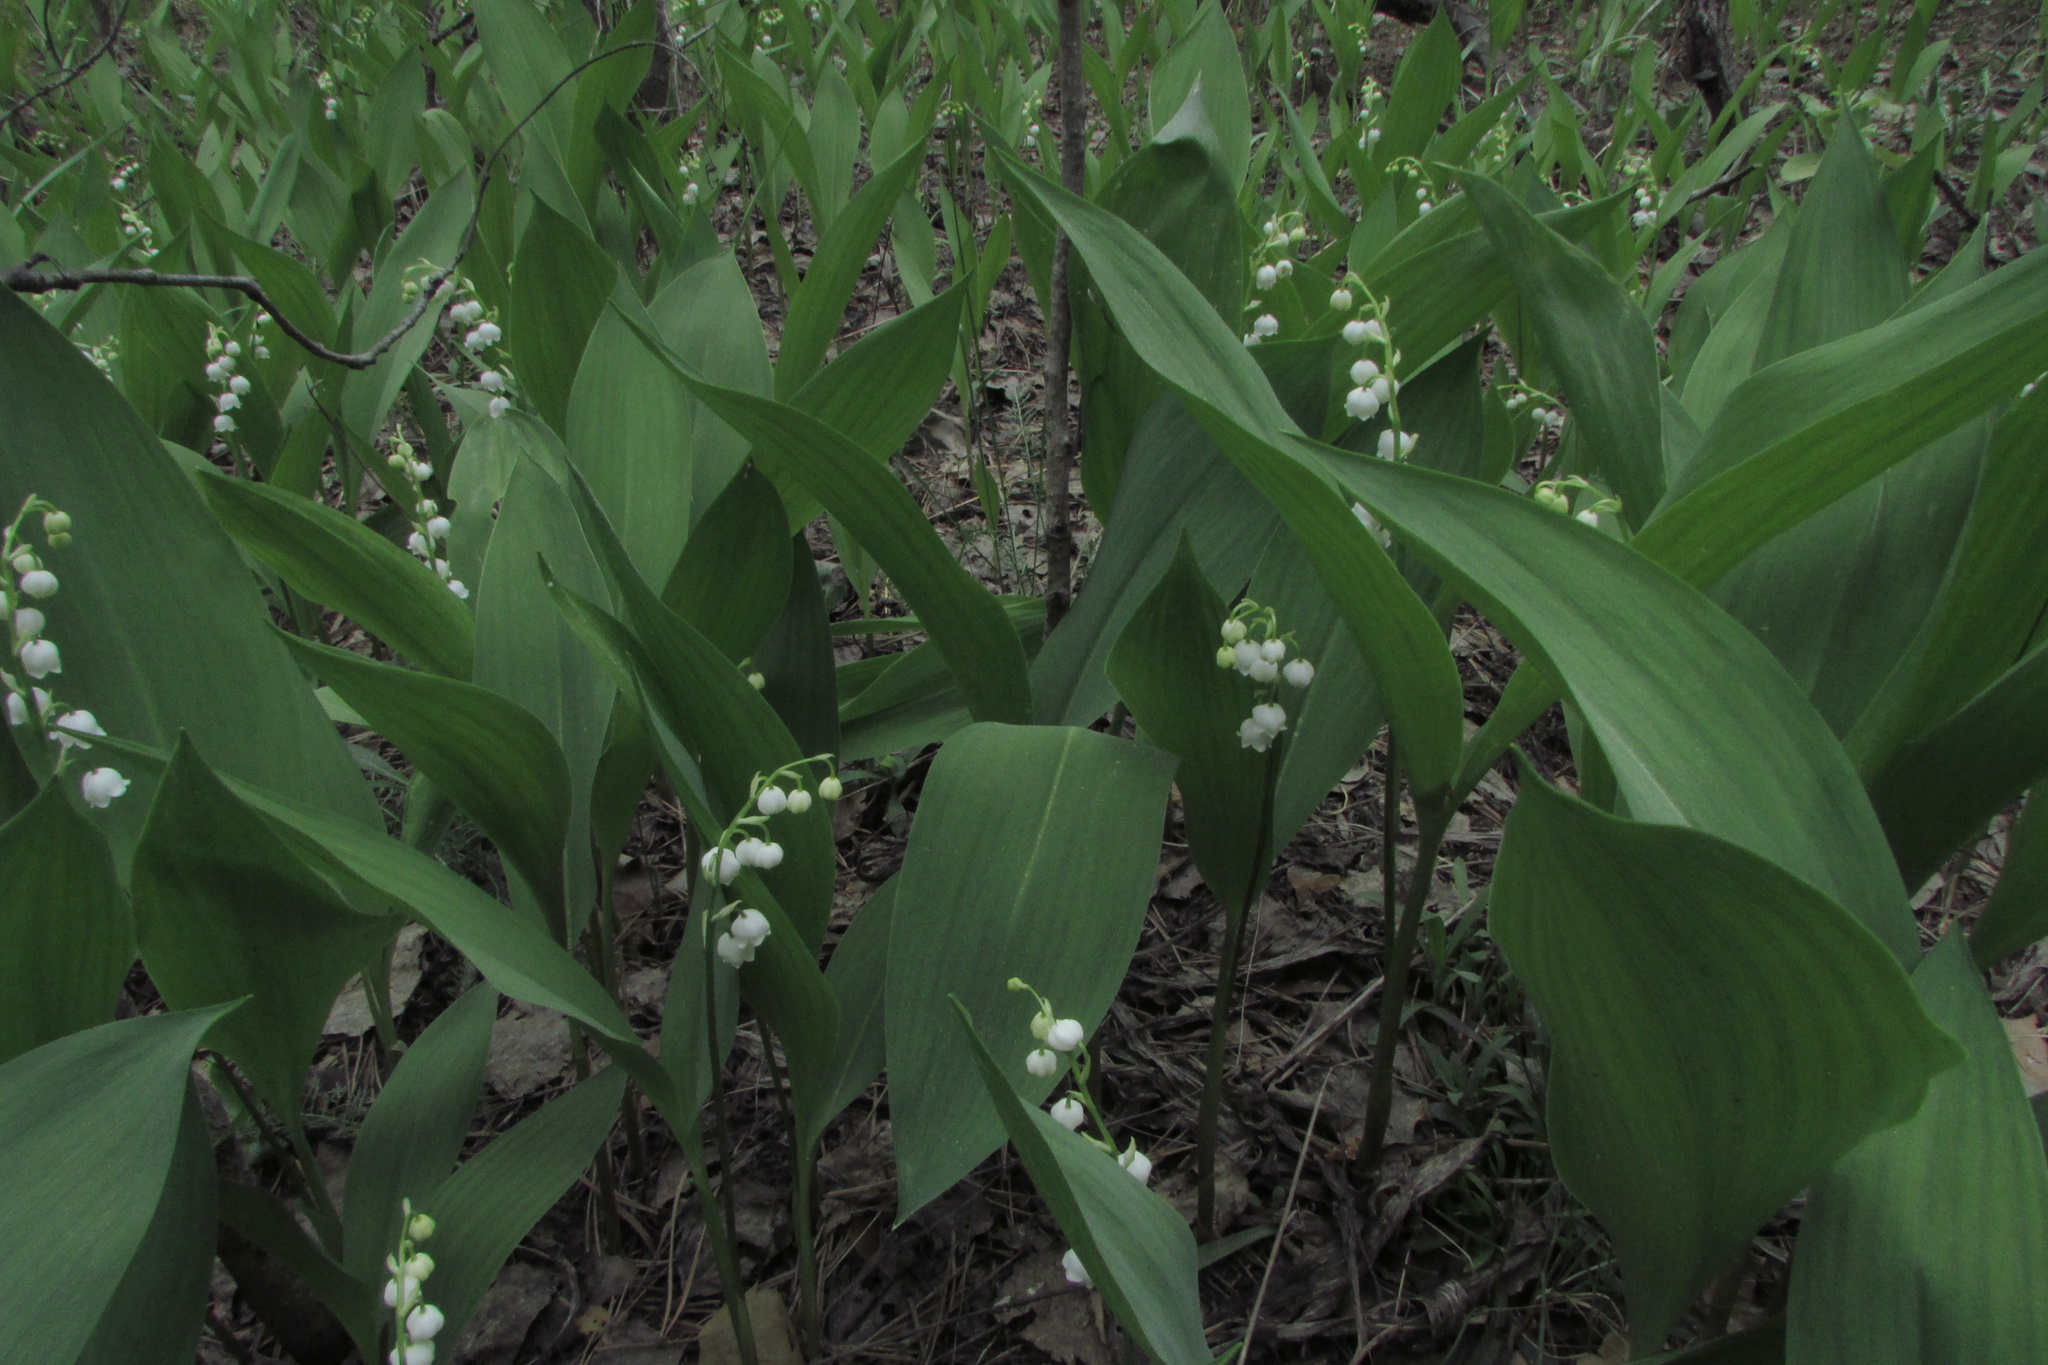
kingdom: Plantae
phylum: Tracheophyta
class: Liliopsida
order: Asparagales
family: Asparagaceae
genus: Convallaria
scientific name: Convallaria majalis
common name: Lily-of-the-valley
